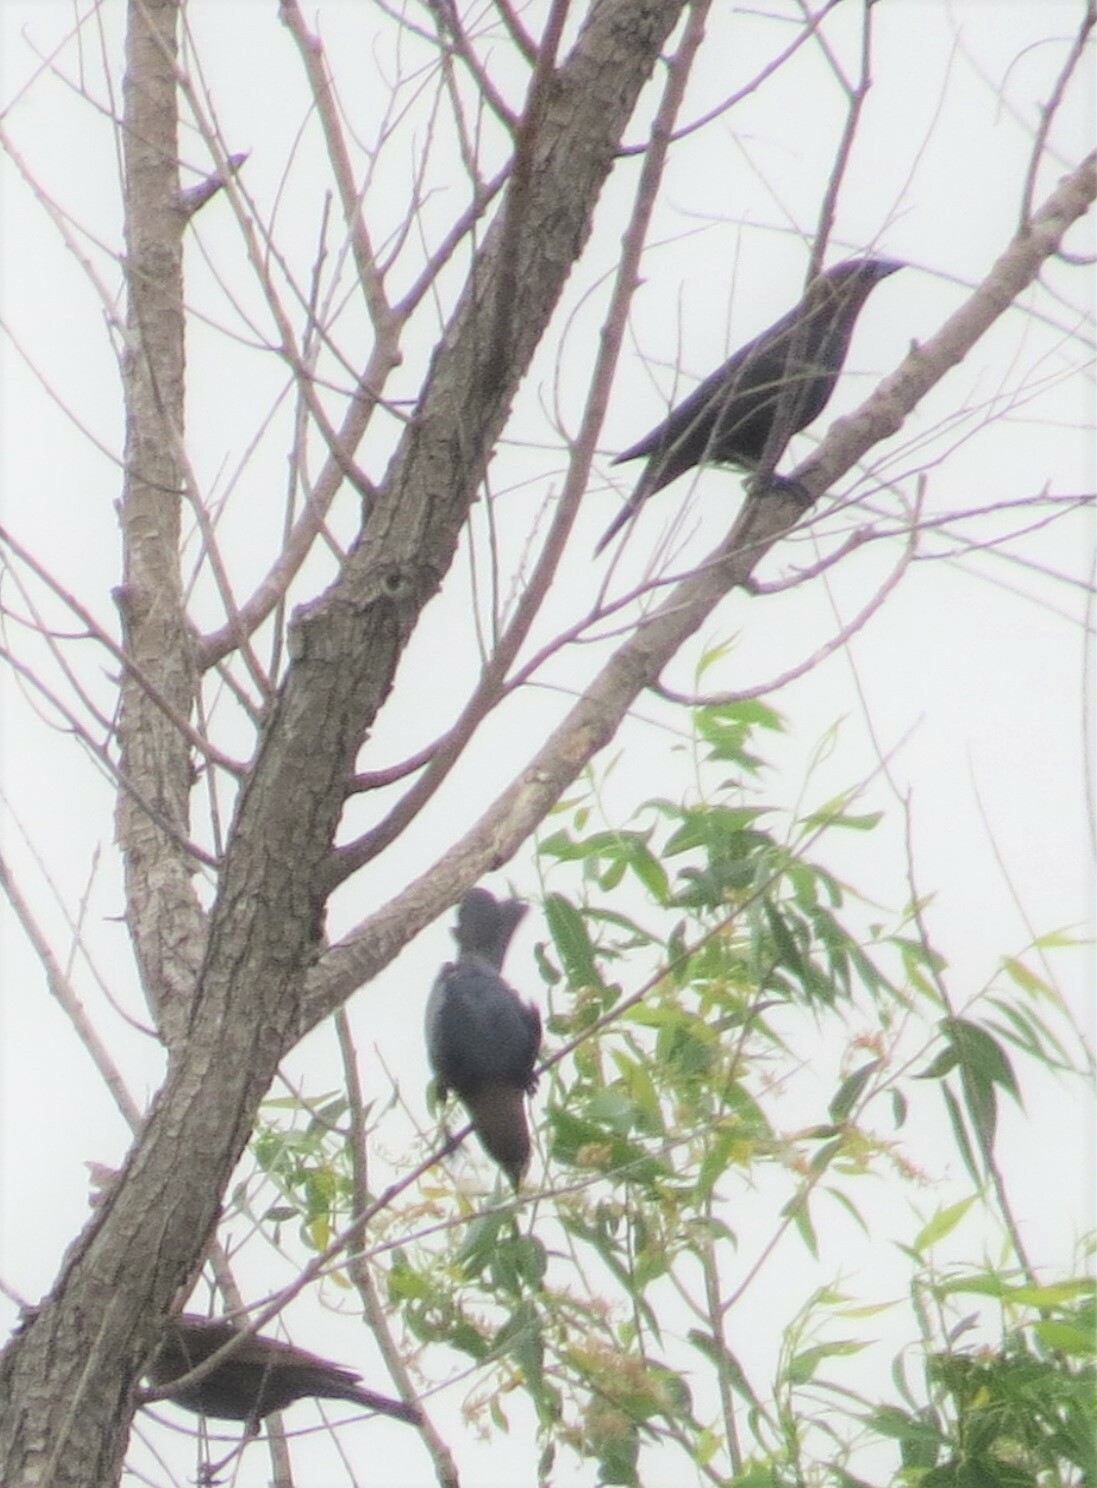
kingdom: Animalia
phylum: Chordata
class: Aves
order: Passeriformes
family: Icteridae
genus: Molothrus
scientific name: Molothrus ater
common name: Brown-headed cowbird
